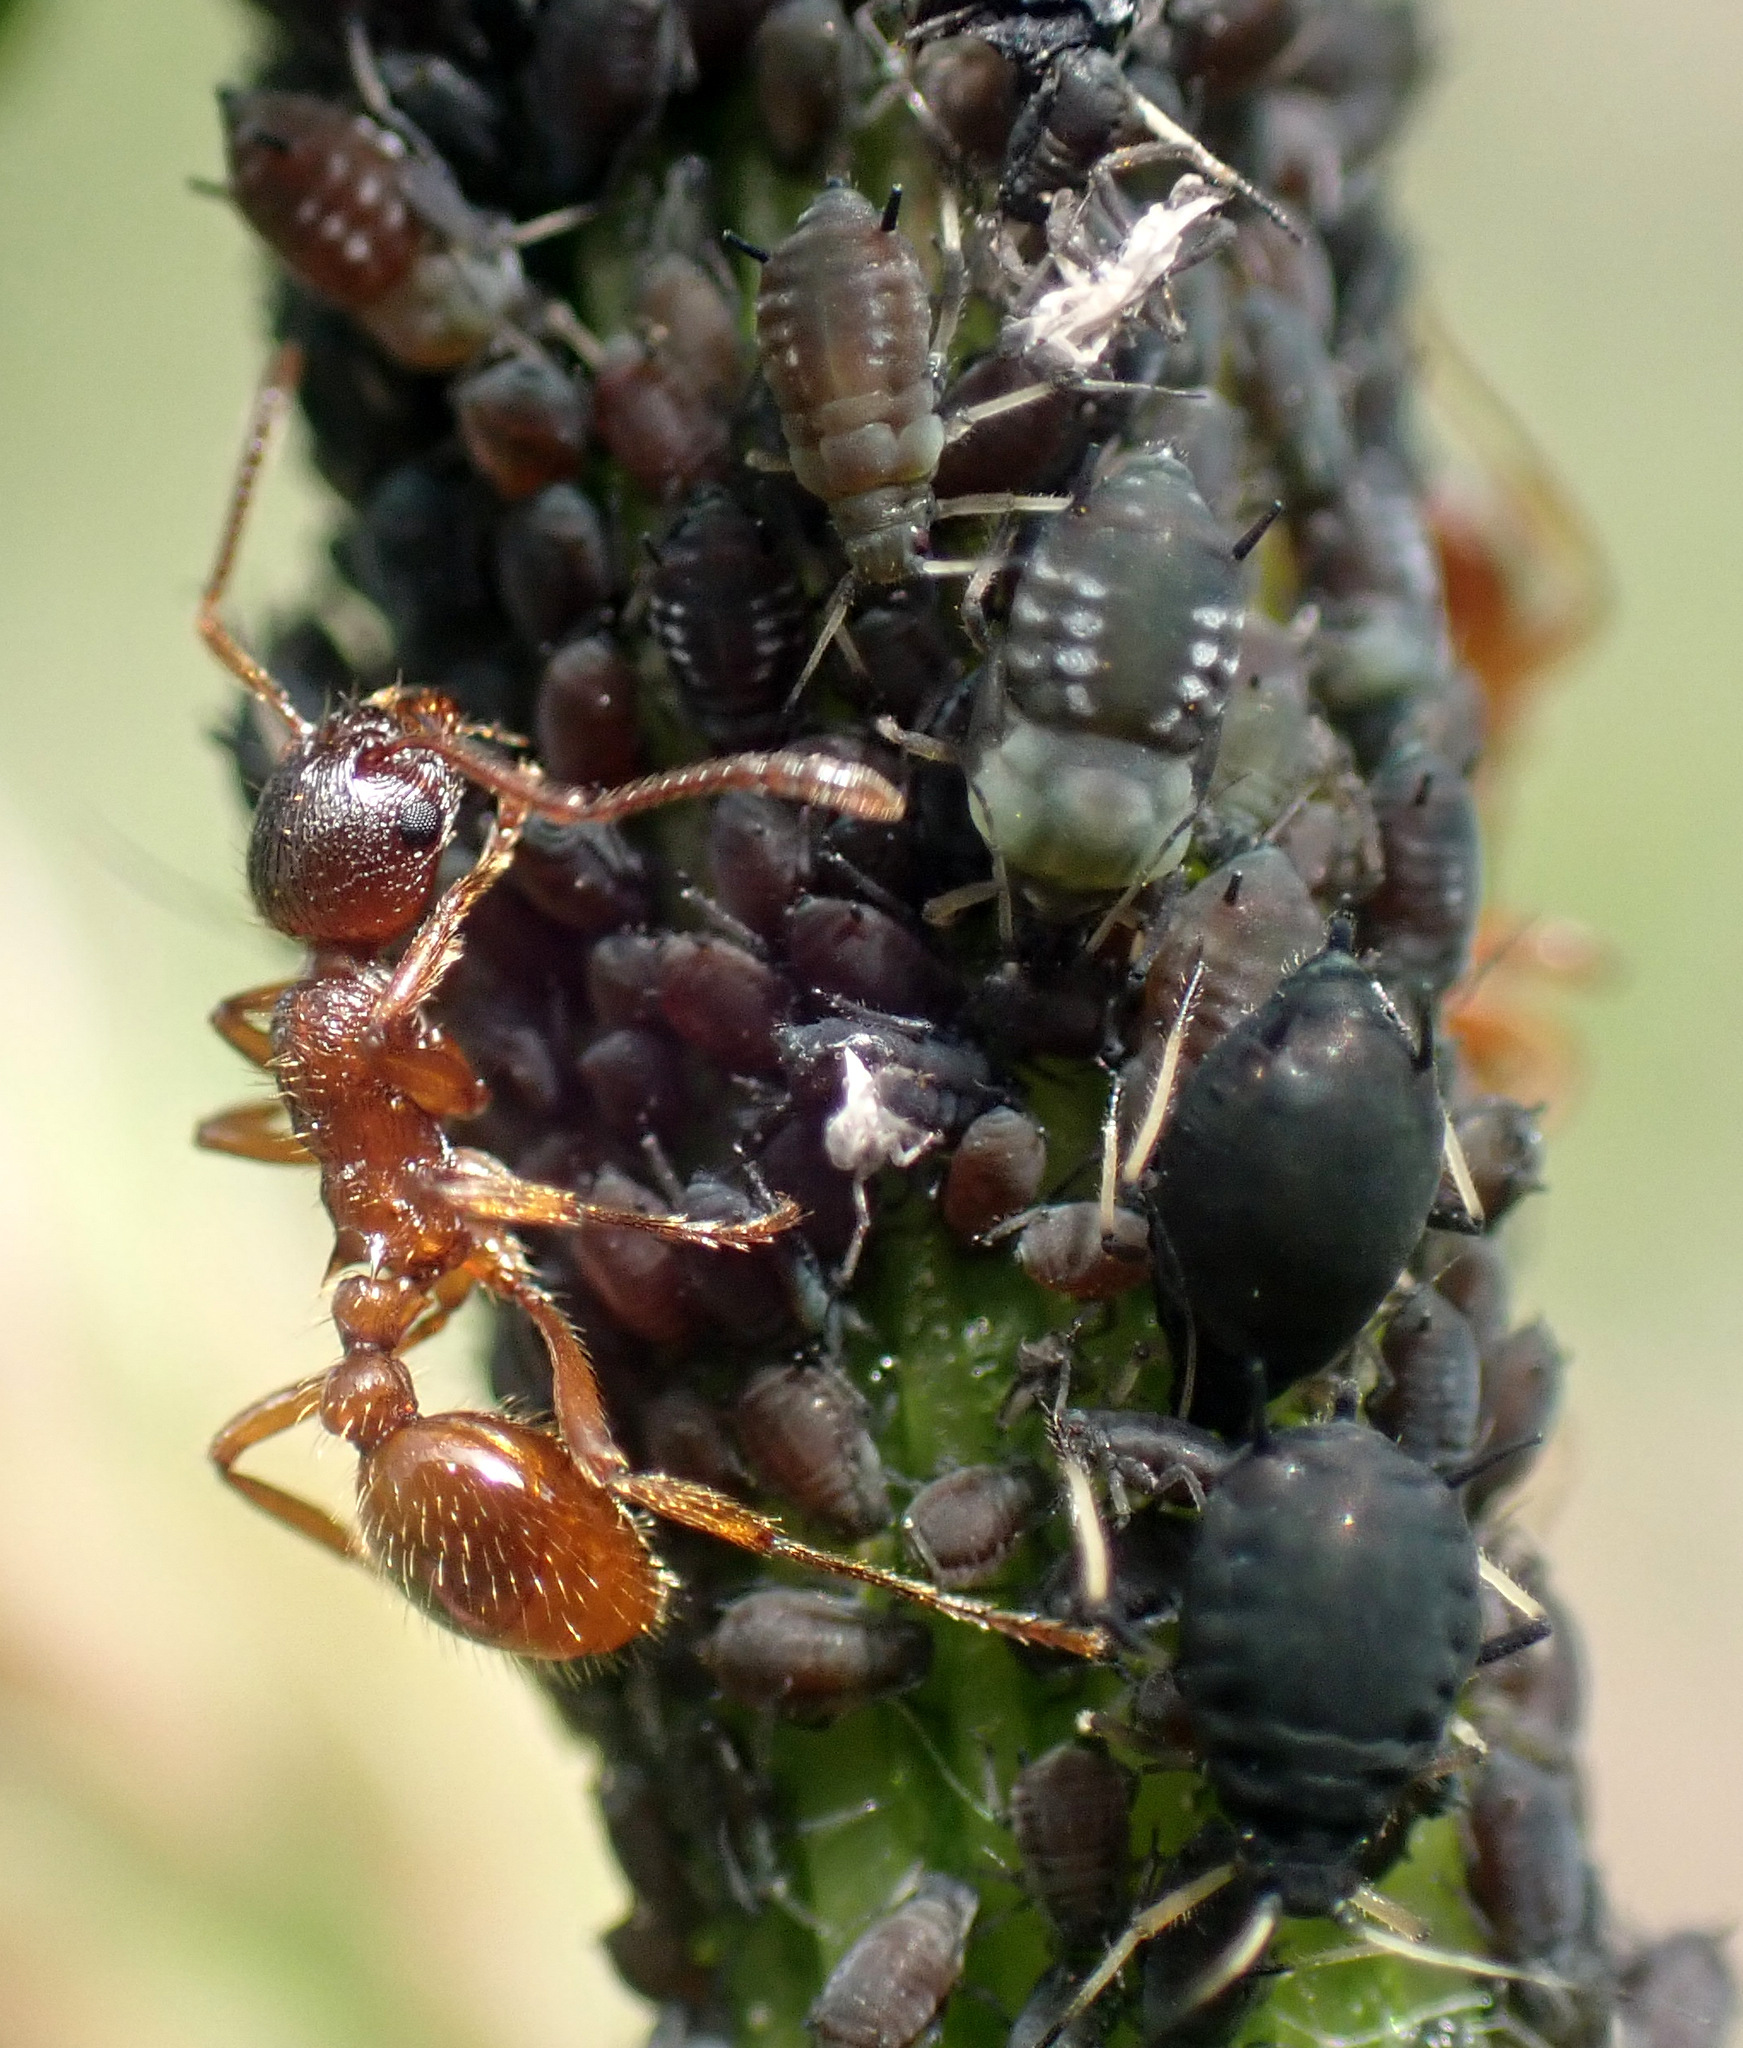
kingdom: Animalia
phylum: Arthropoda
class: Insecta
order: Hymenoptera
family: Formicidae
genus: Myrmica
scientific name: Myrmica rubra
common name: European fire ant
